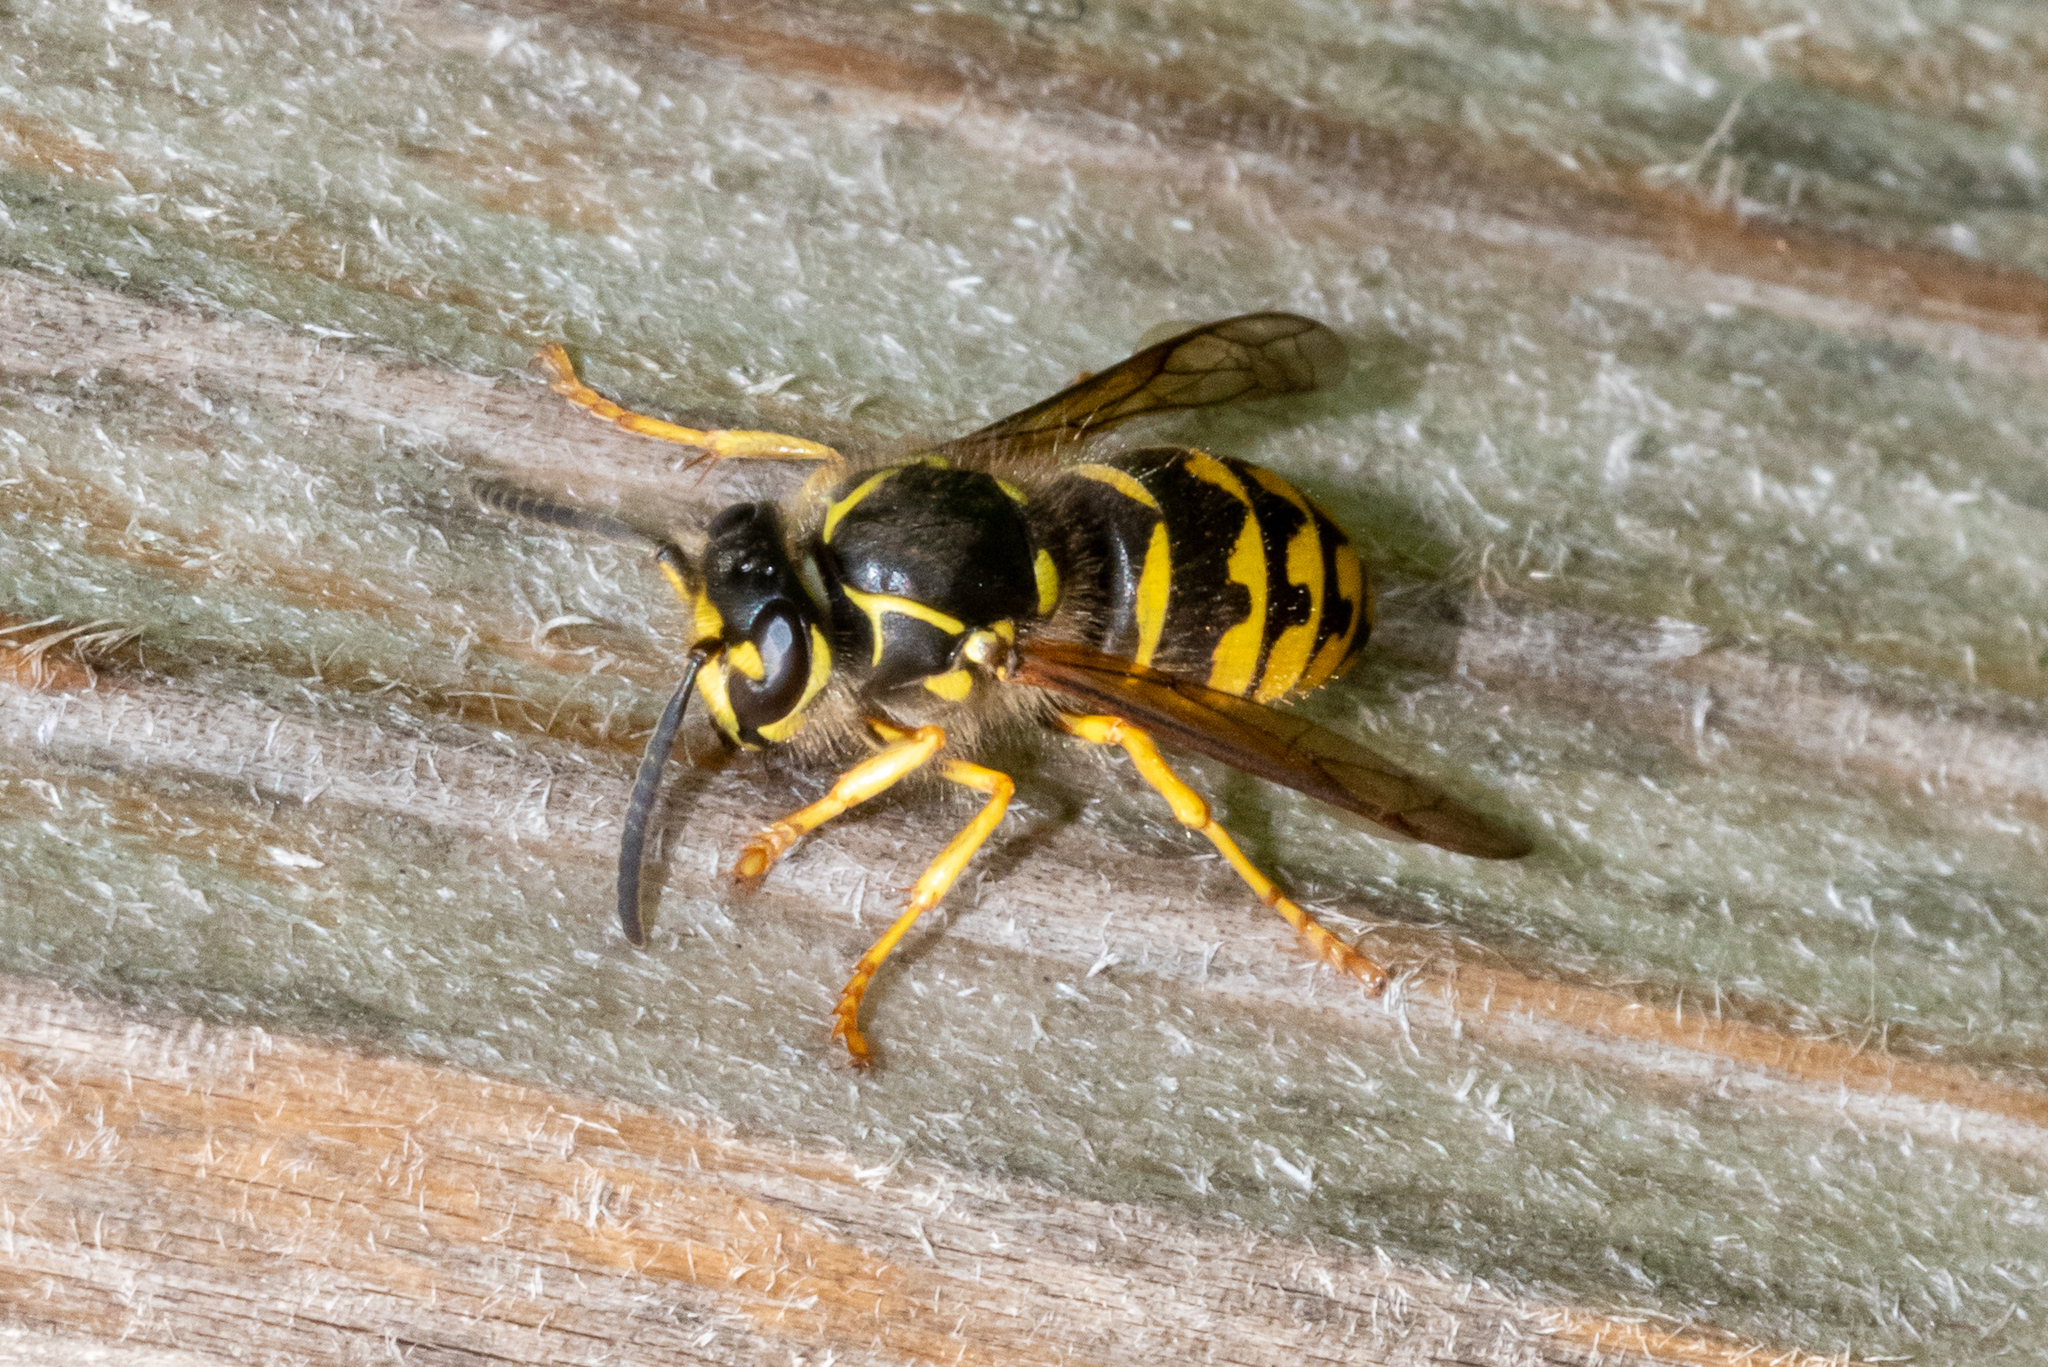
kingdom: Animalia
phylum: Arthropoda
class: Insecta
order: Hymenoptera
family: Vespidae
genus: Dolichovespula
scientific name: Dolichovespula arenaria
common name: Aerial yellowjacket
